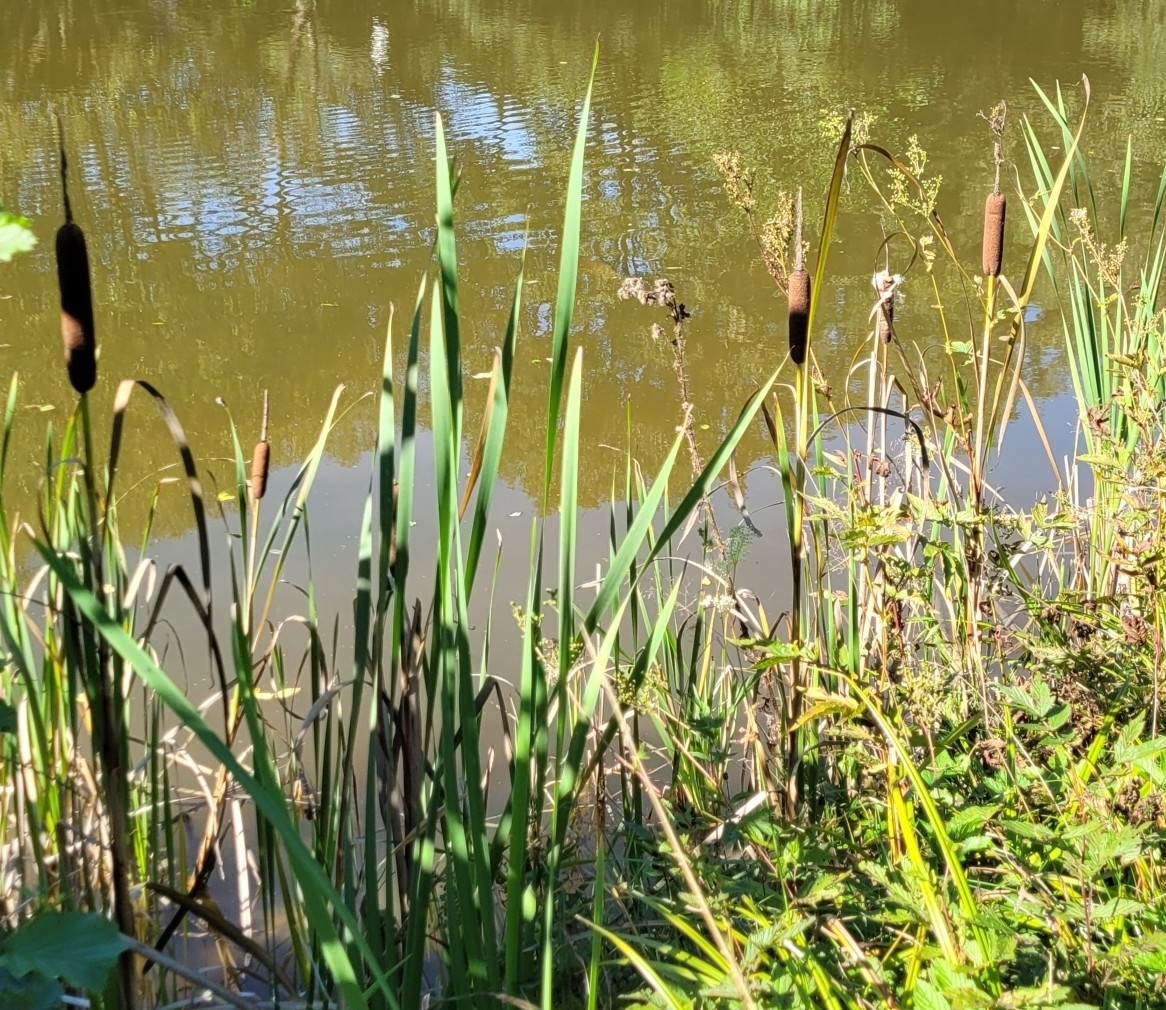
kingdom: Plantae
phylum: Tracheophyta
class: Liliopsida
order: Poales
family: Typhaceae
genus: Typha
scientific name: Typha latifolia
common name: Broadleaf cattail
